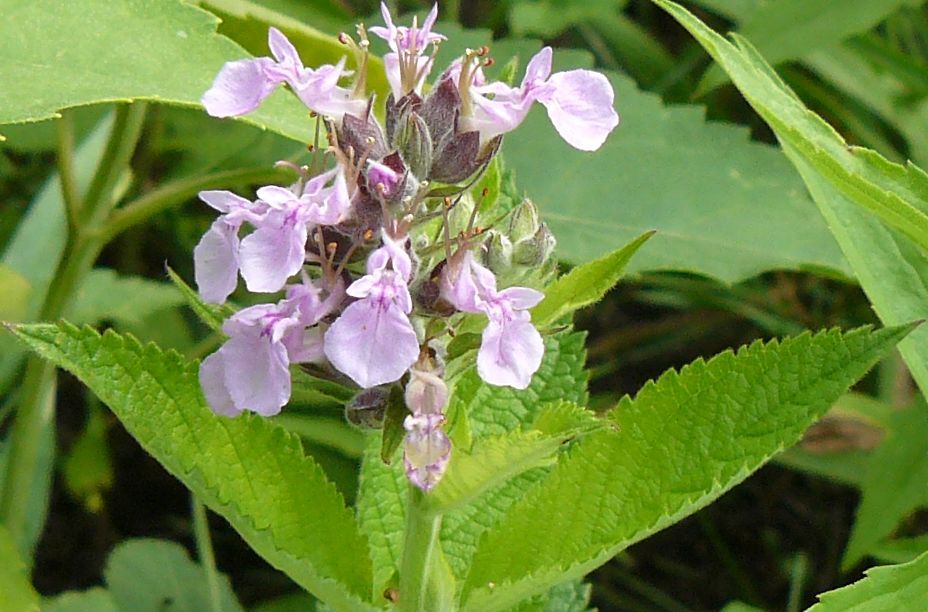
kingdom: Plantae
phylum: Tracheophyta
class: Magnoliopsida
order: Lamiales
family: Lamiaceae
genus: Teucrium
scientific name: Teucrium canadense
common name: American germander
